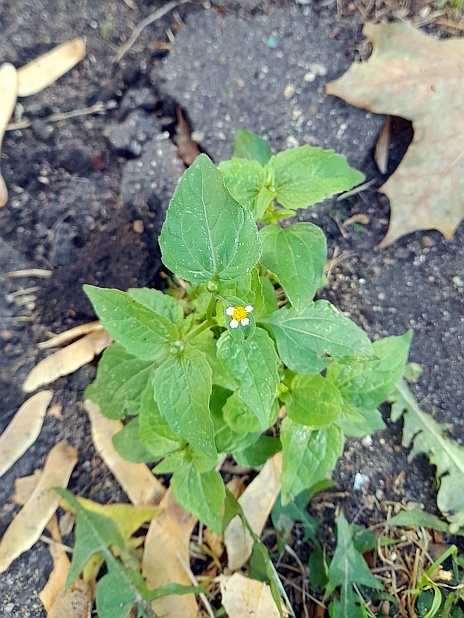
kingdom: Plantae
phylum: Tracheophyta
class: Magnoliopsida
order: Asterales
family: Asteraceae
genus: Galinsoga
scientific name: Galinsoga parviflora
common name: Gallant soldier
